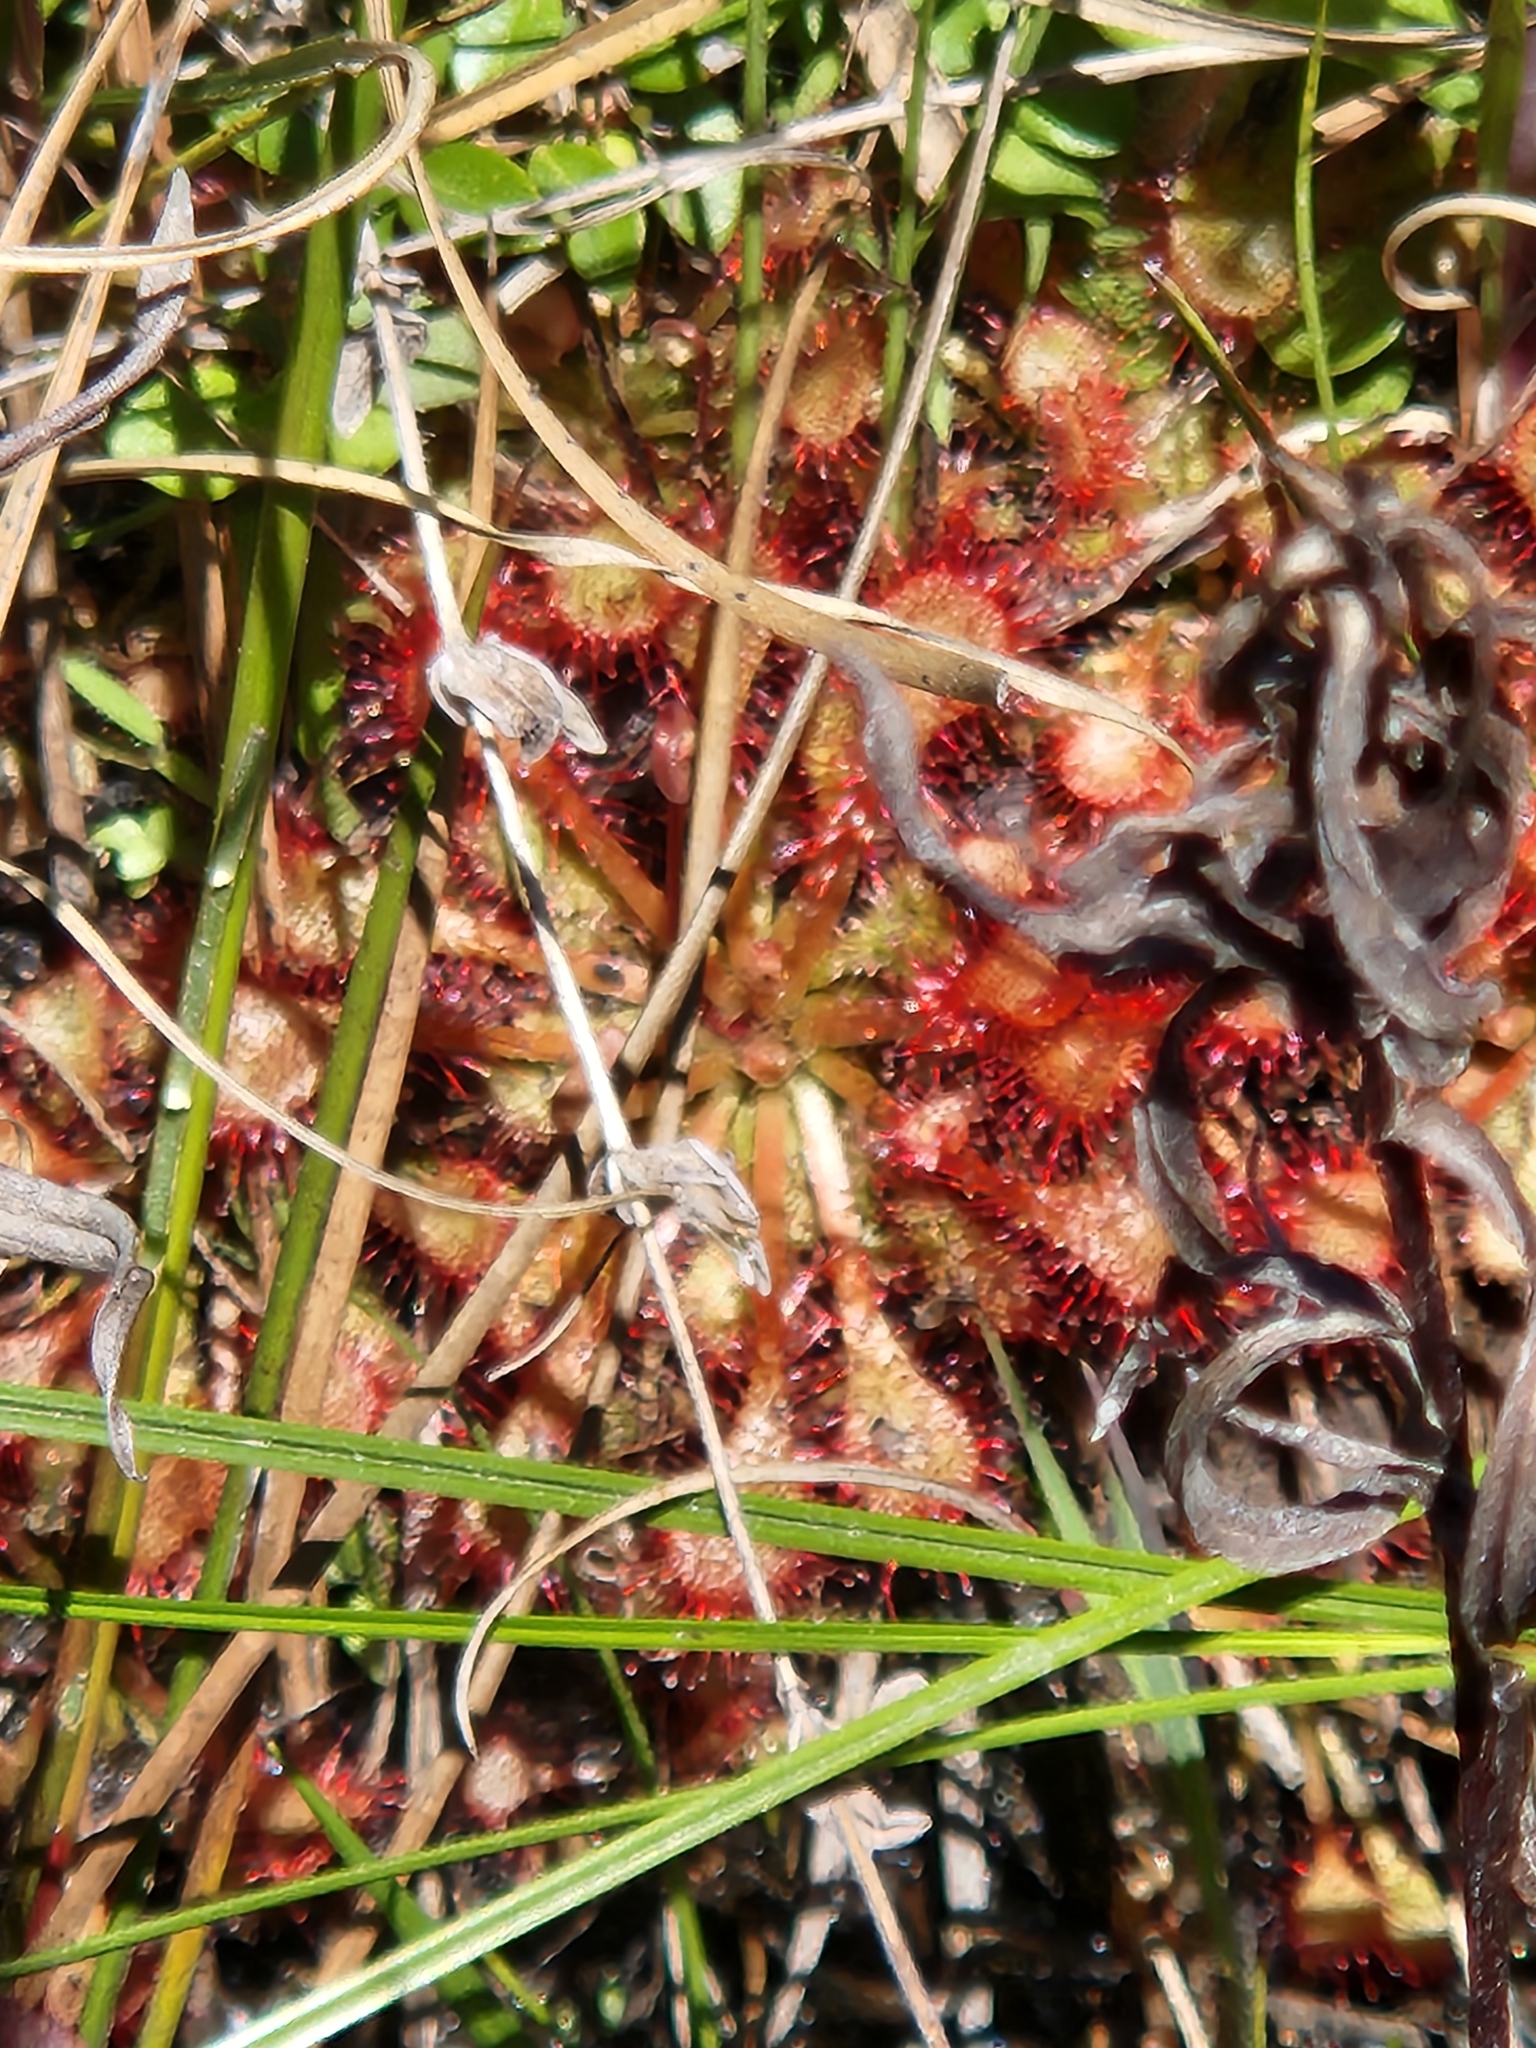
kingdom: Plantae
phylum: Tracheophyta
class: Magnoliopsida
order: Caryophyllales
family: Droseraceae
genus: Drosera
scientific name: Drosera capillaris
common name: Pink sundew
